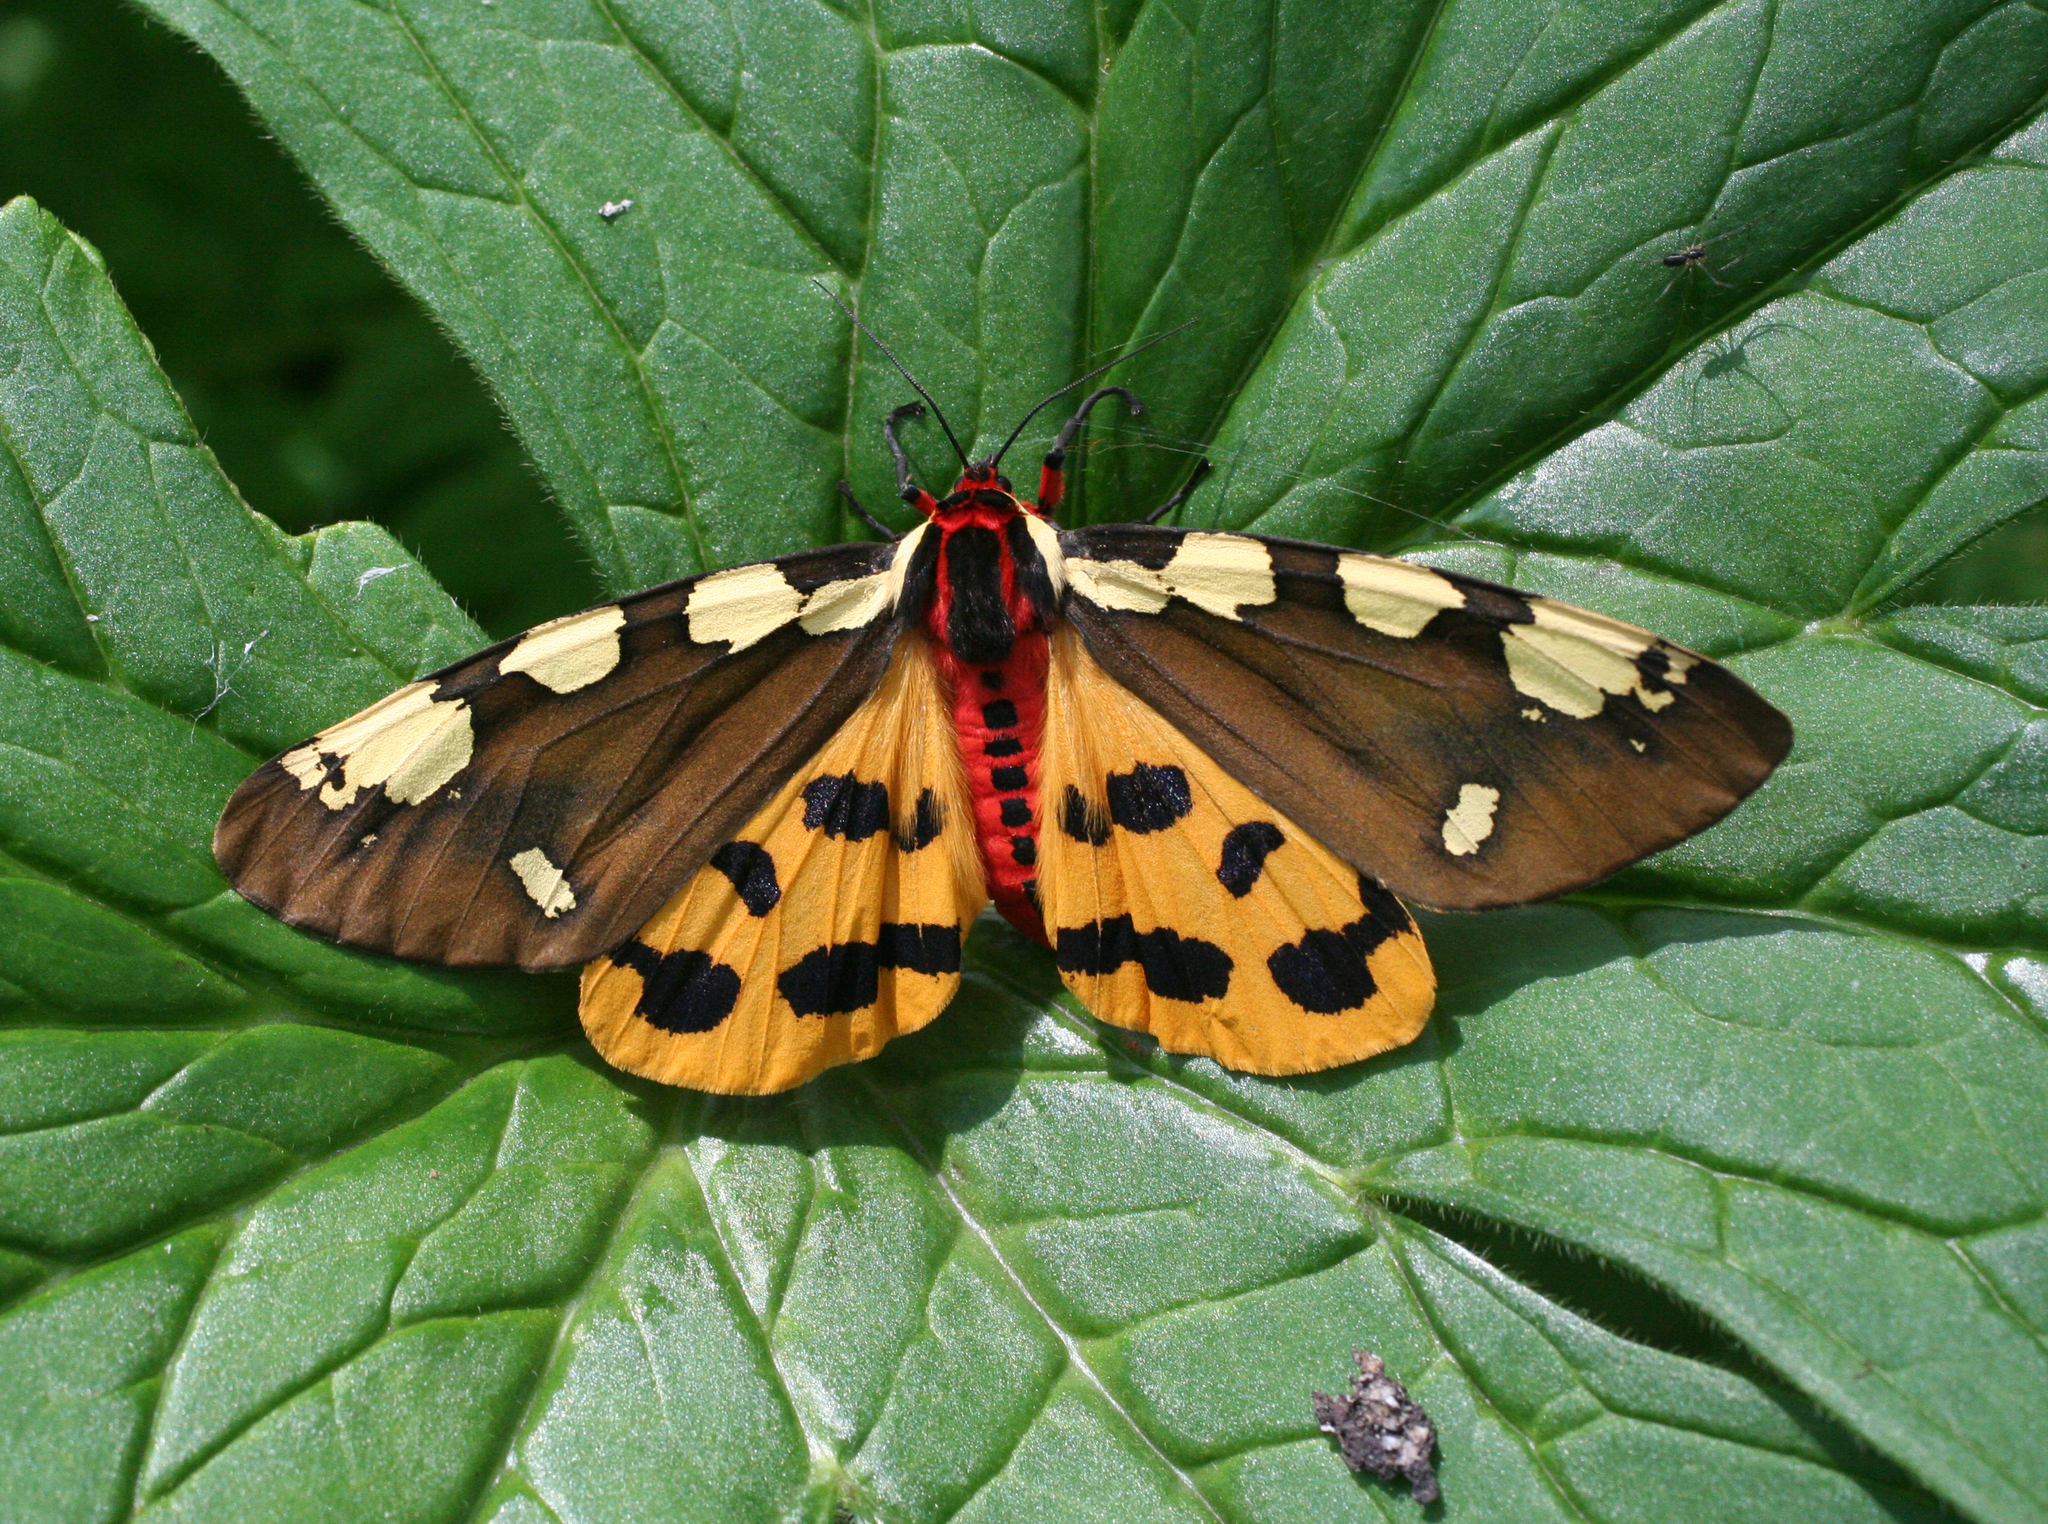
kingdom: Animalia
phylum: Arthropoda
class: Insecta
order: Lepidoptera
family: Erebidae
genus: Pericallia
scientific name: Pericallia matronula
